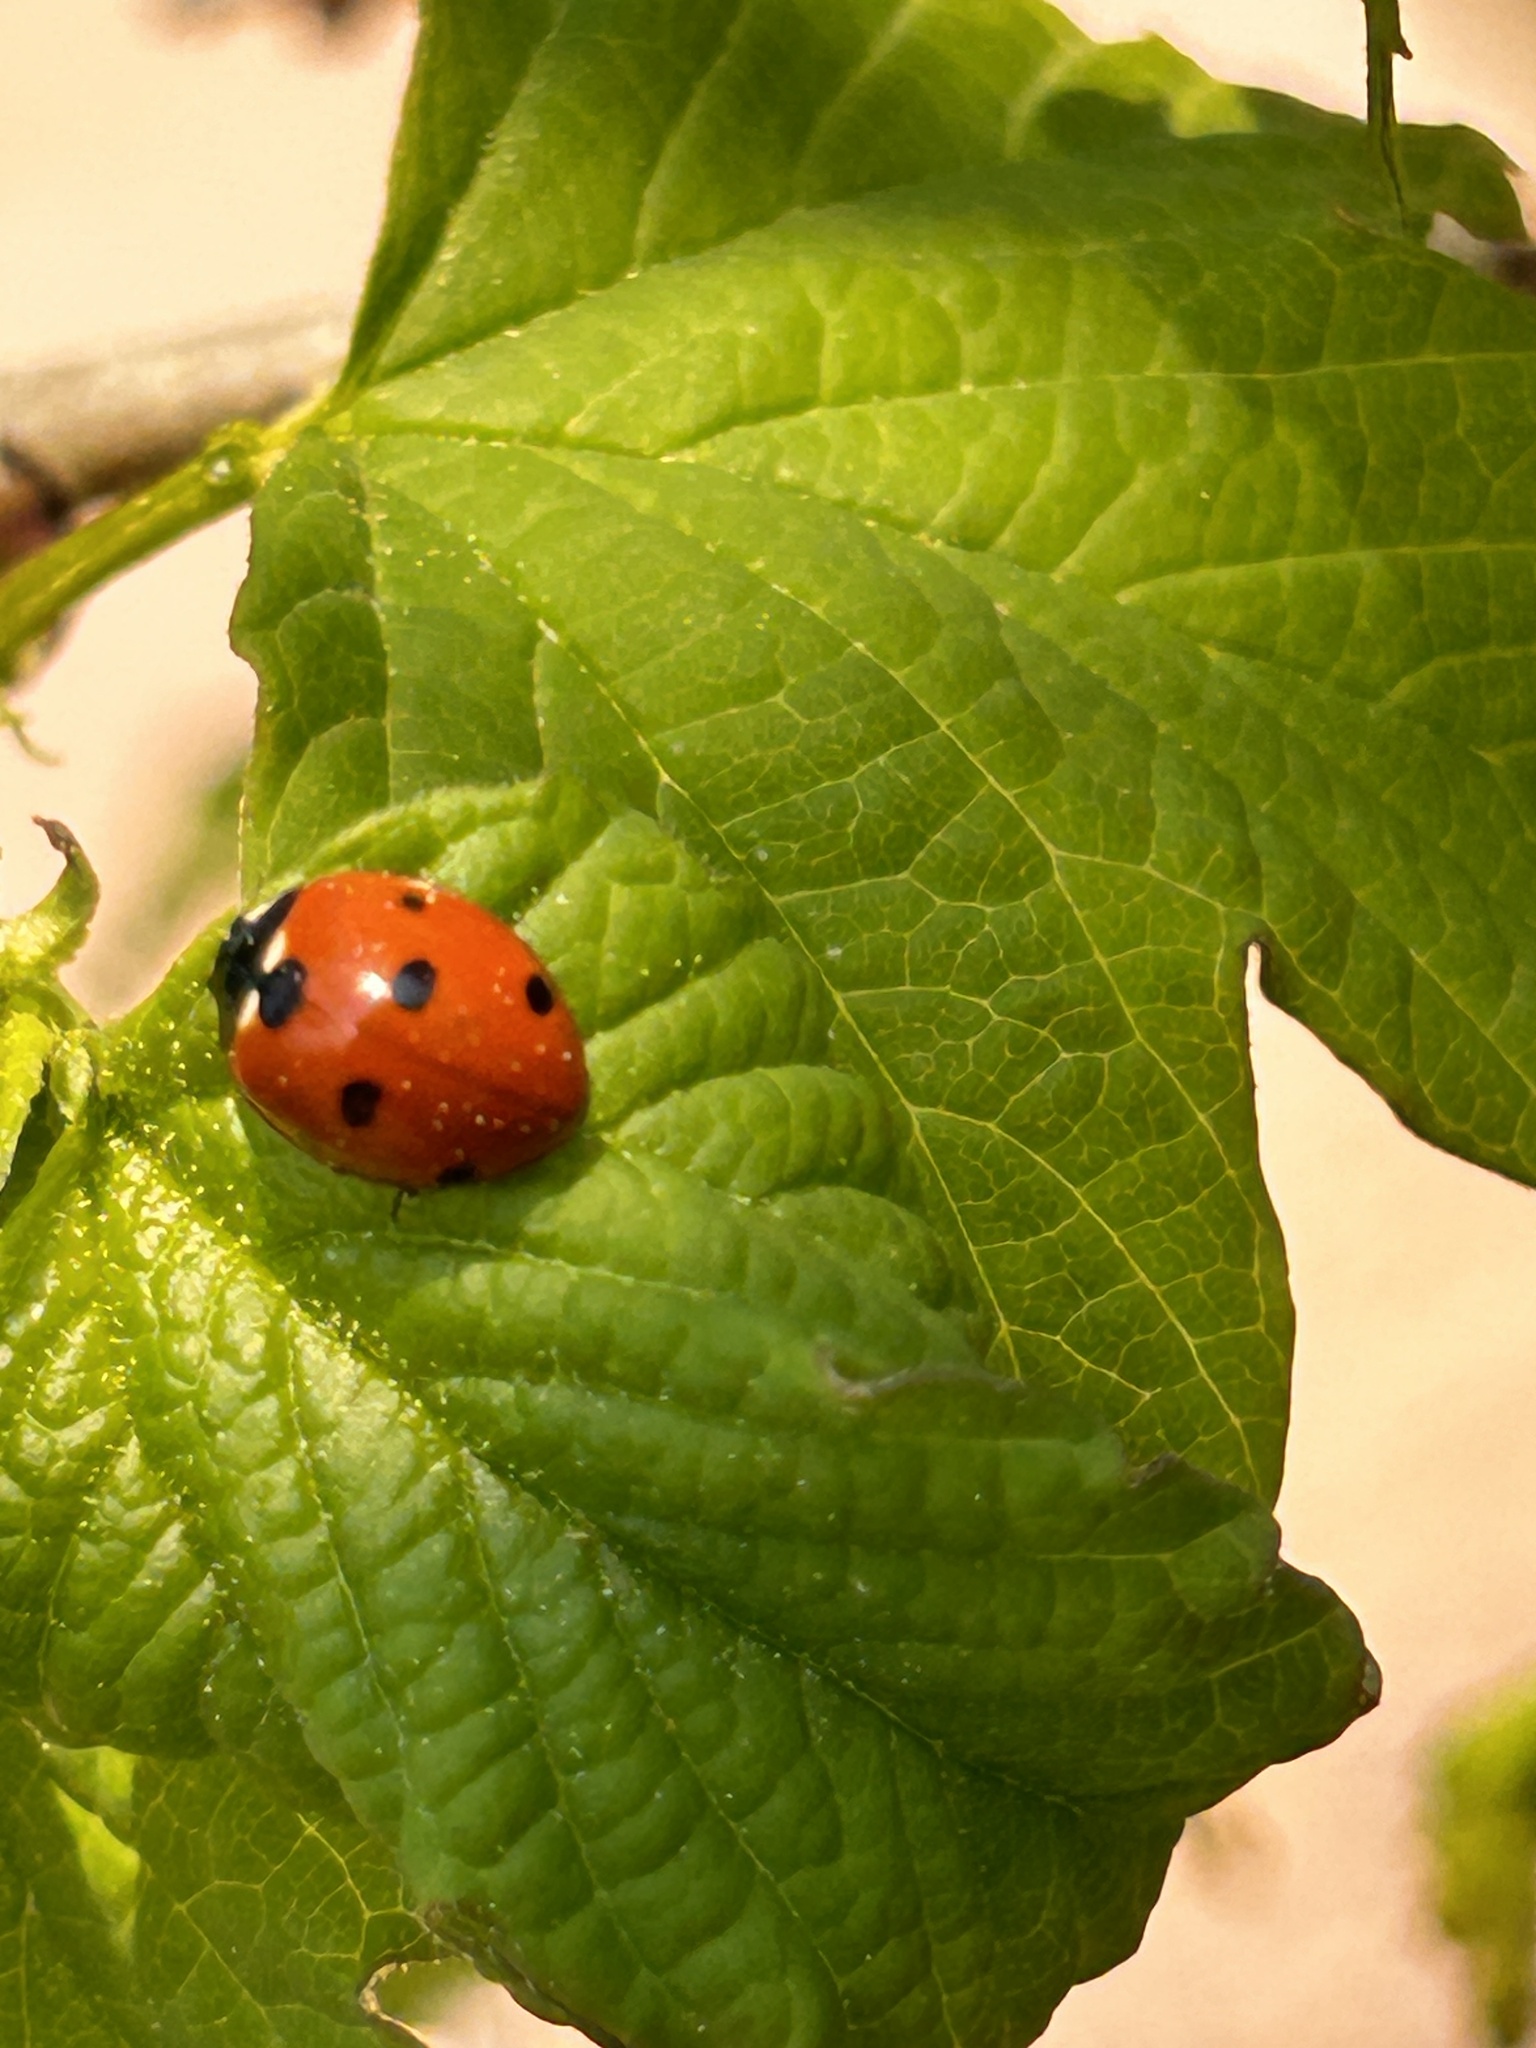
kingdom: Animalia
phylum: Arthropoda
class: Insecta
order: Coleoptera
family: Coccinellidae
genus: Coccinella
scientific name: Coccinella septempunctata
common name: Sevenspotted lady beetle
